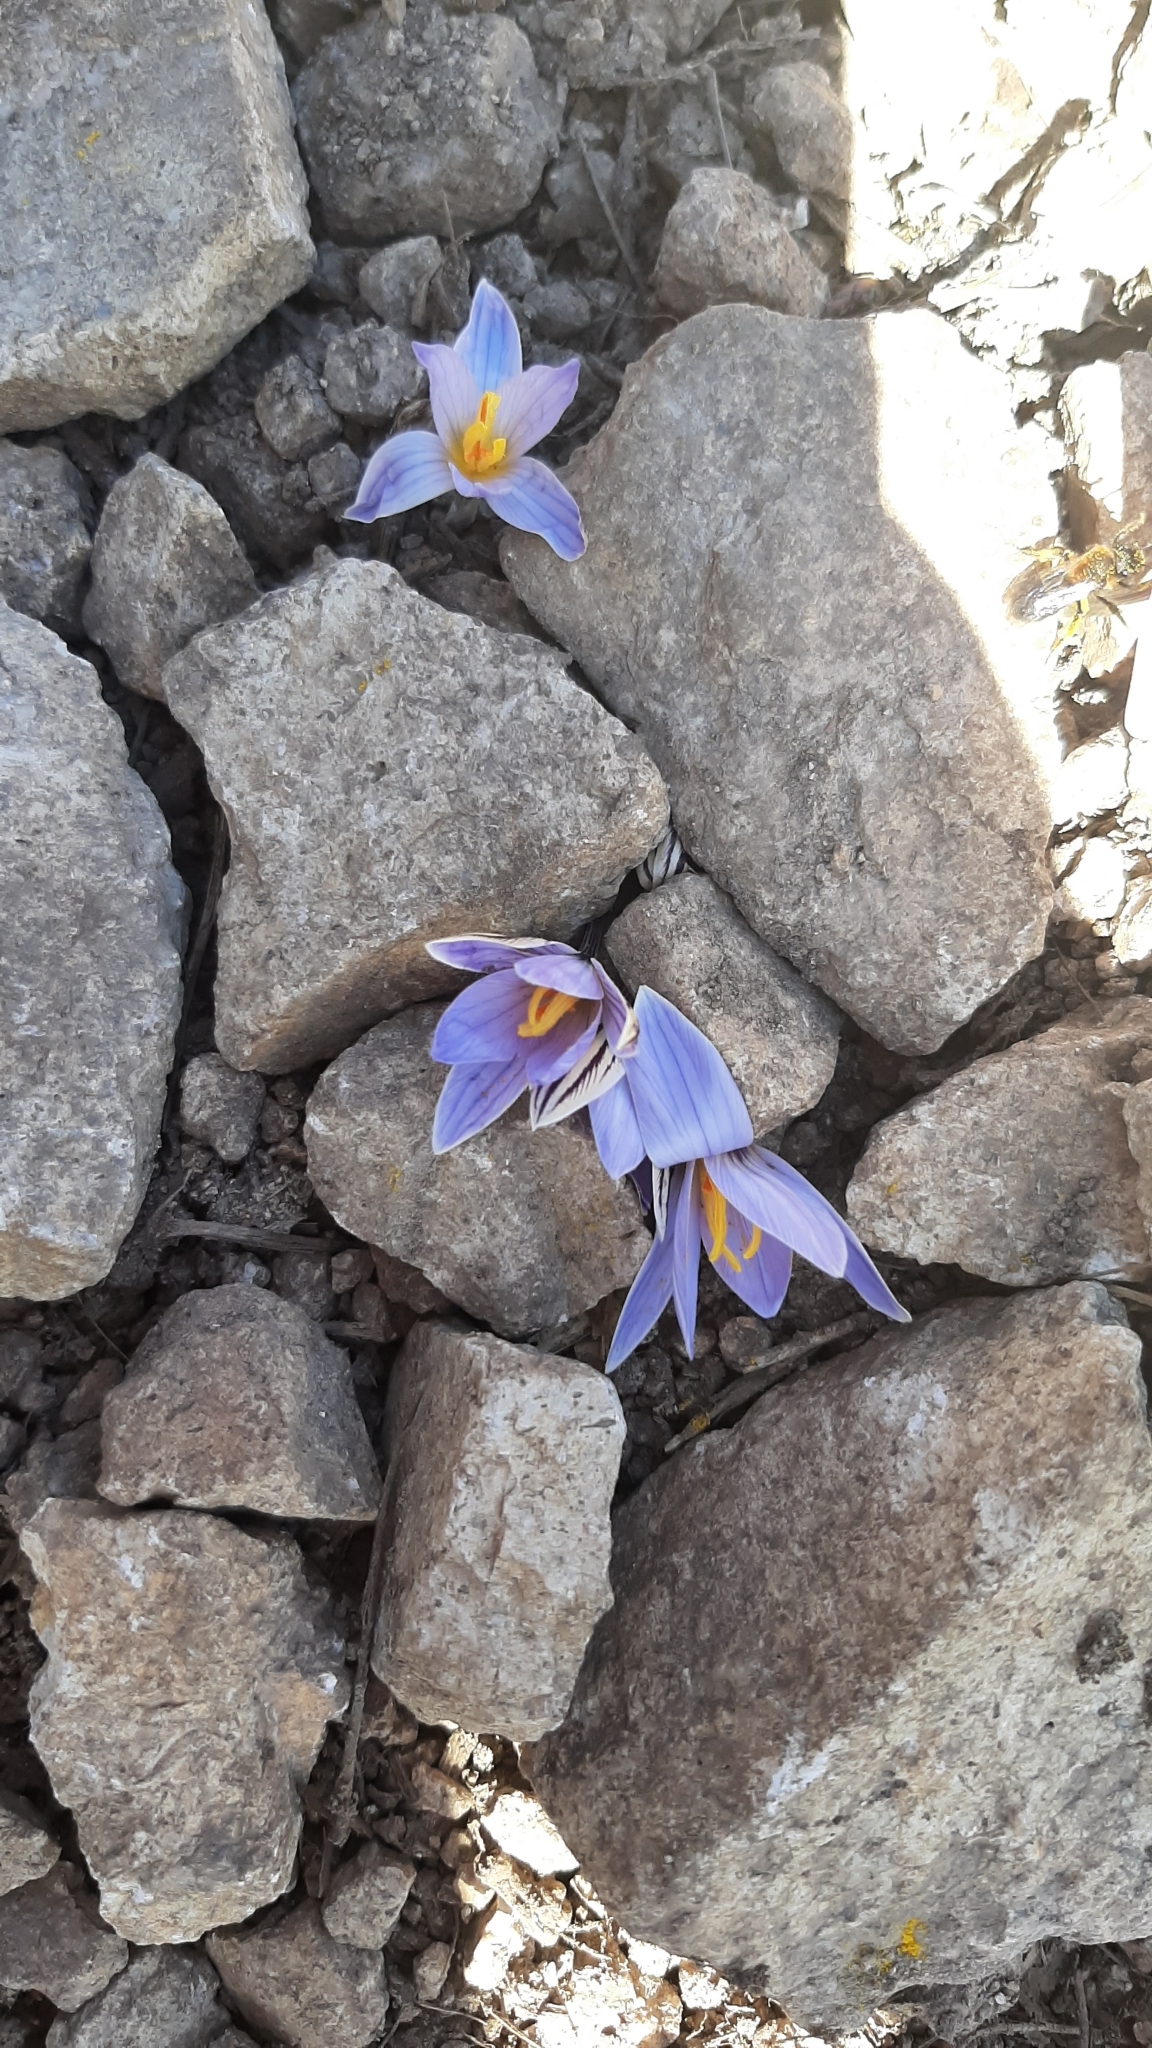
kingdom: Plantae
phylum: Tracheophyta
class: Liliopsida
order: Asparagales
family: Iridaceae
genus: Crocus
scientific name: Crocus reticulatus
